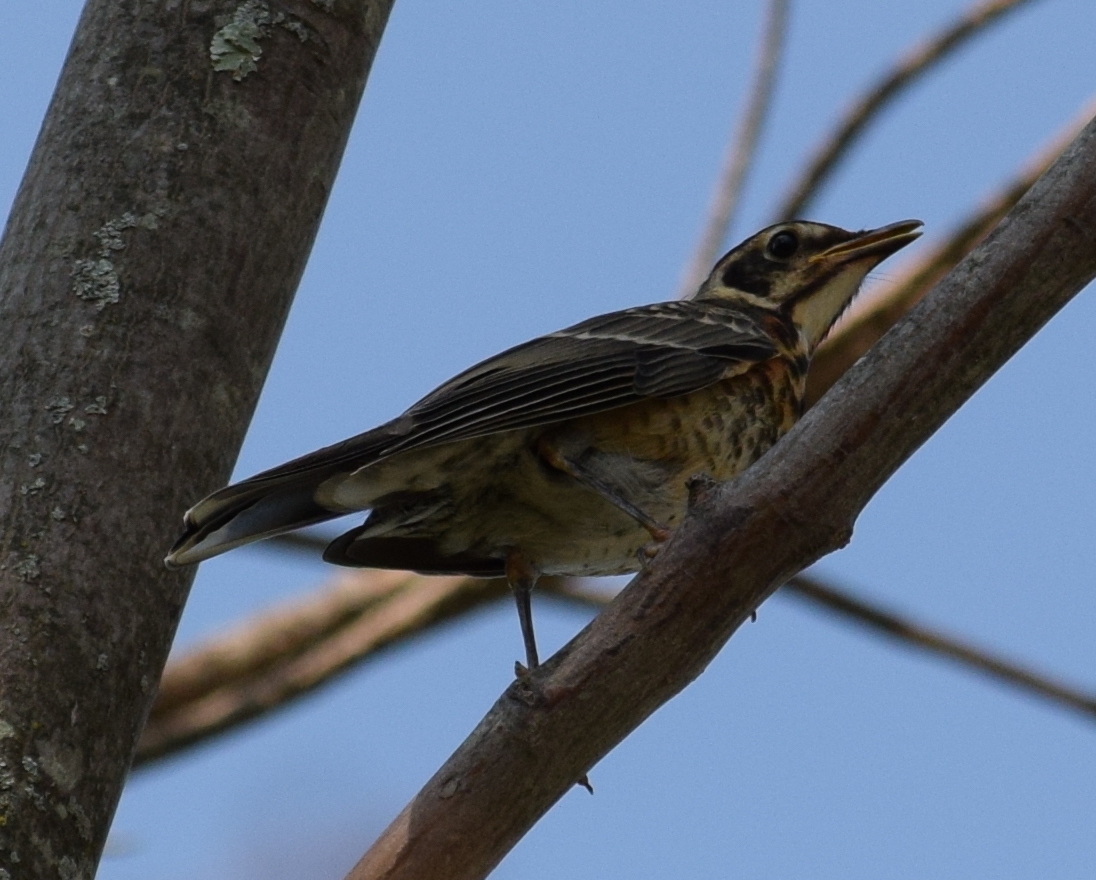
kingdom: Animalia
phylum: Chordata
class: Aves
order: Passeriformes
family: Turdidae
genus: Turdus
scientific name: Turdus migratorius
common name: American robin
